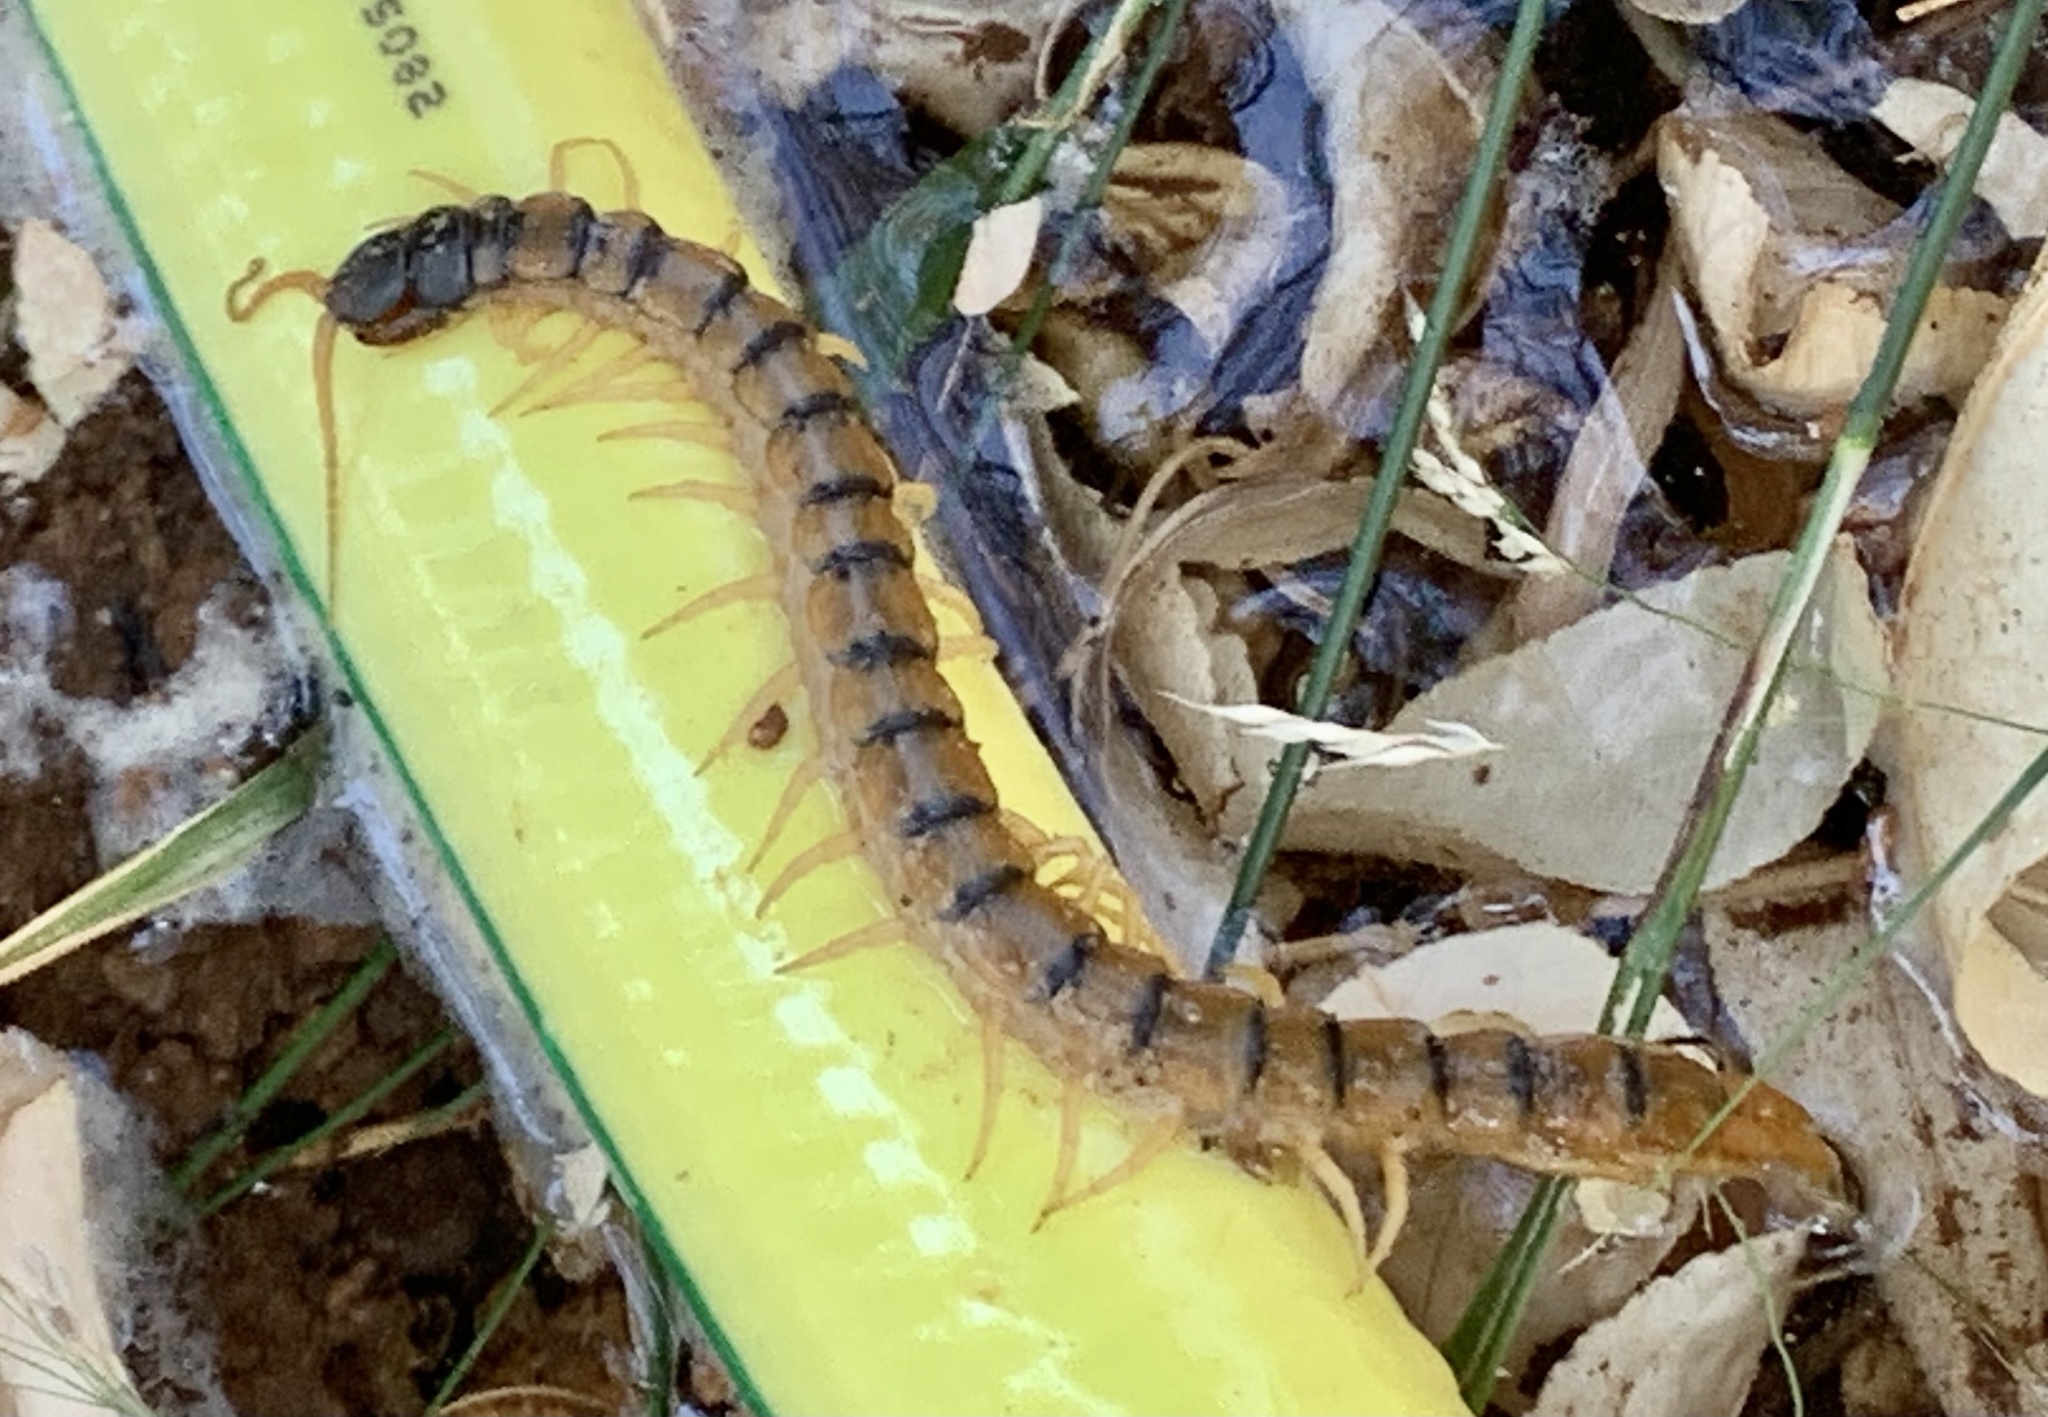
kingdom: Animalia
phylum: Arthropoda
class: Chilopoda
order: Scolopendromorpha
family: Scolopendridae
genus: Scolopendra
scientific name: Scolopendra cingulata
